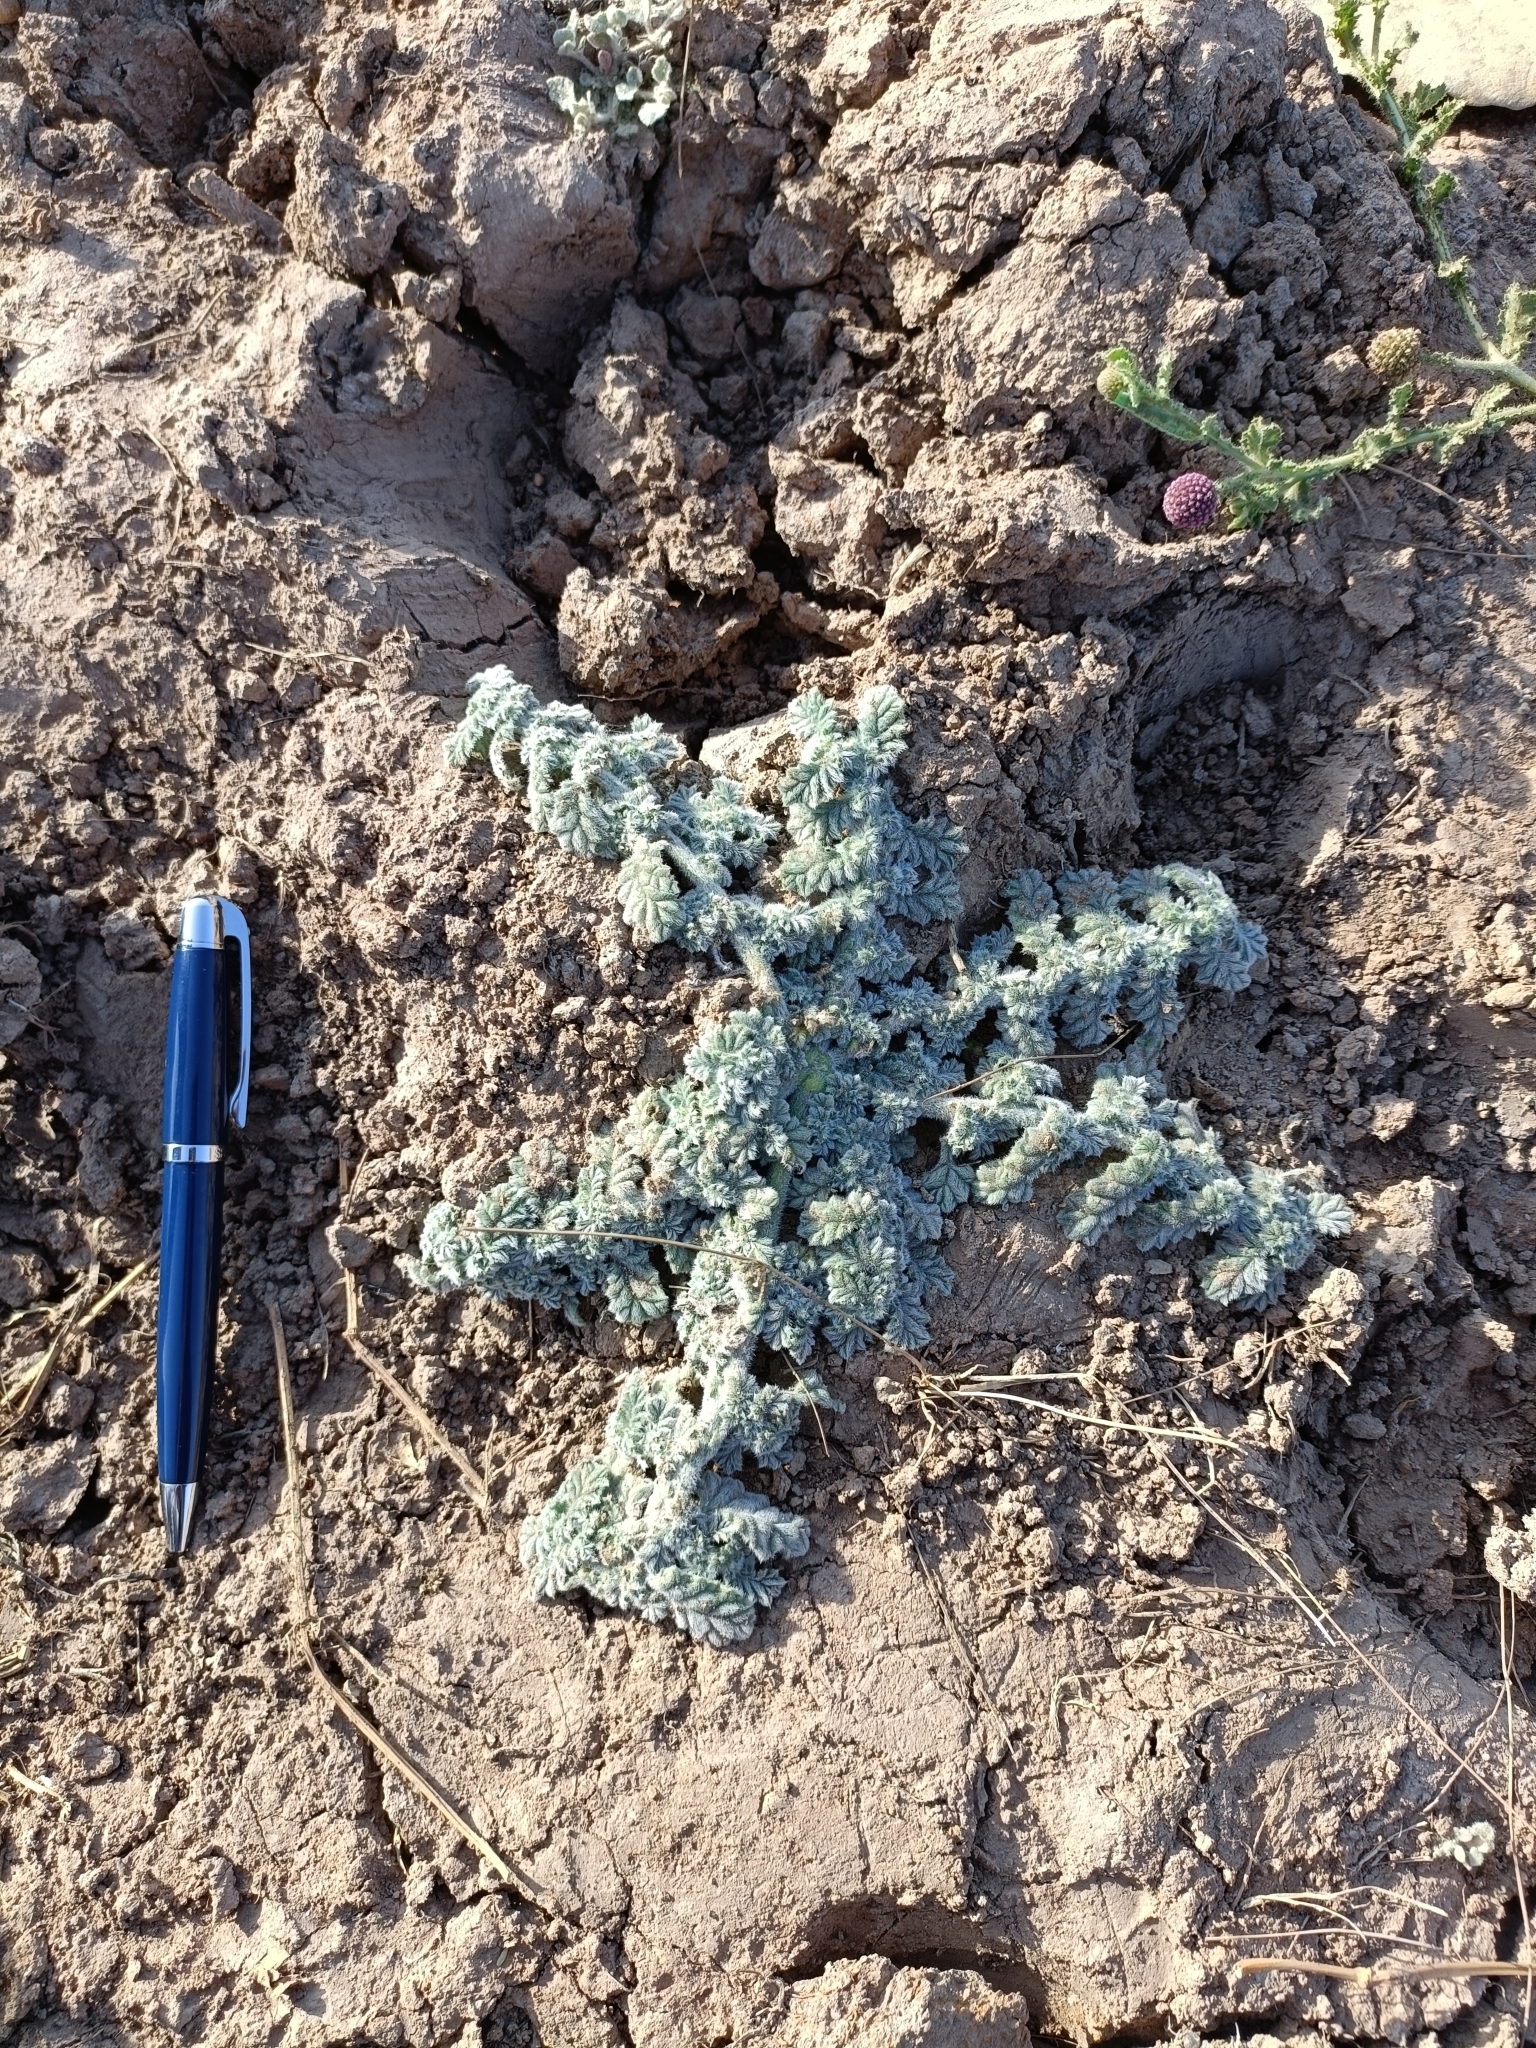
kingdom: Plantae
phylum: Tracheophyta
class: Magnoliopsida
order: Boraginales
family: Coldeniaceae
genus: Coldenia
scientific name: Coldenia procumbens
